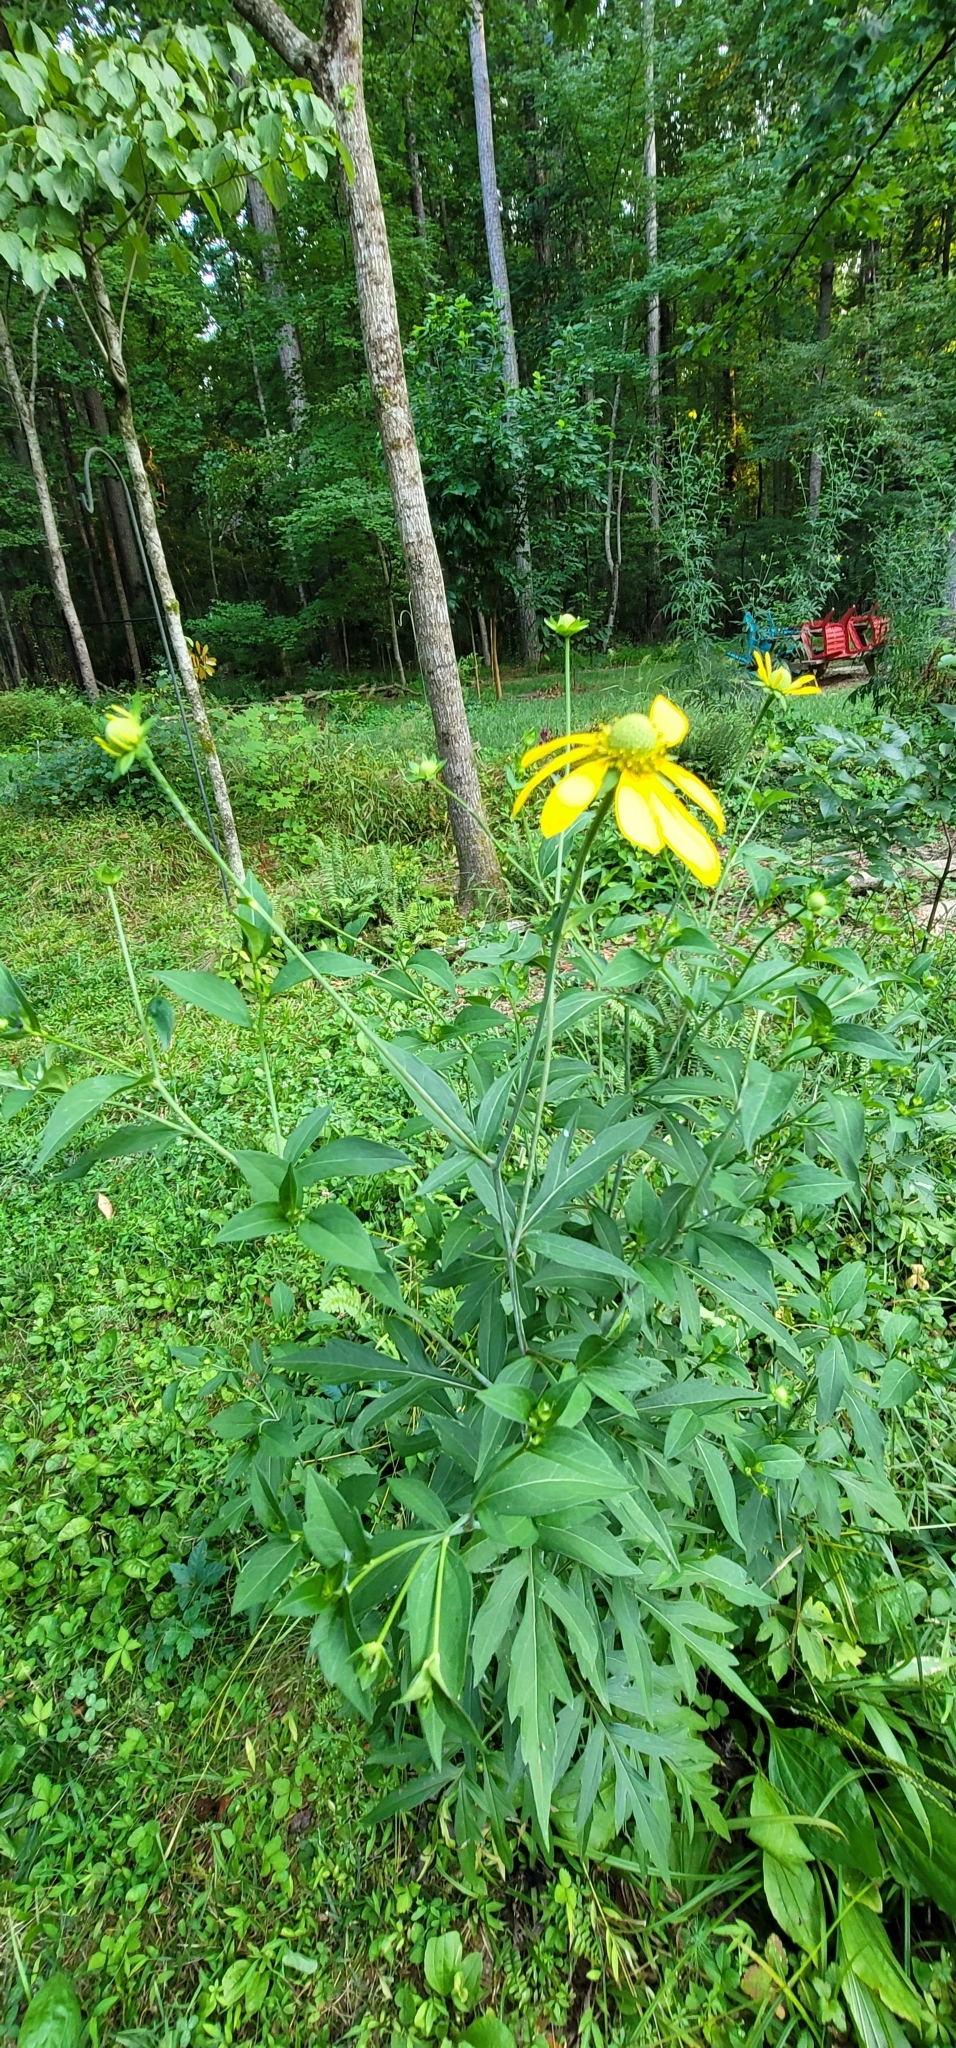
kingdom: Plantae
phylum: Tracheophyta
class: Magnoliopsida
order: Asterales
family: Asteraceae
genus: Rudbeckia
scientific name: Rudbeckia laciniata
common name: Coneflower
